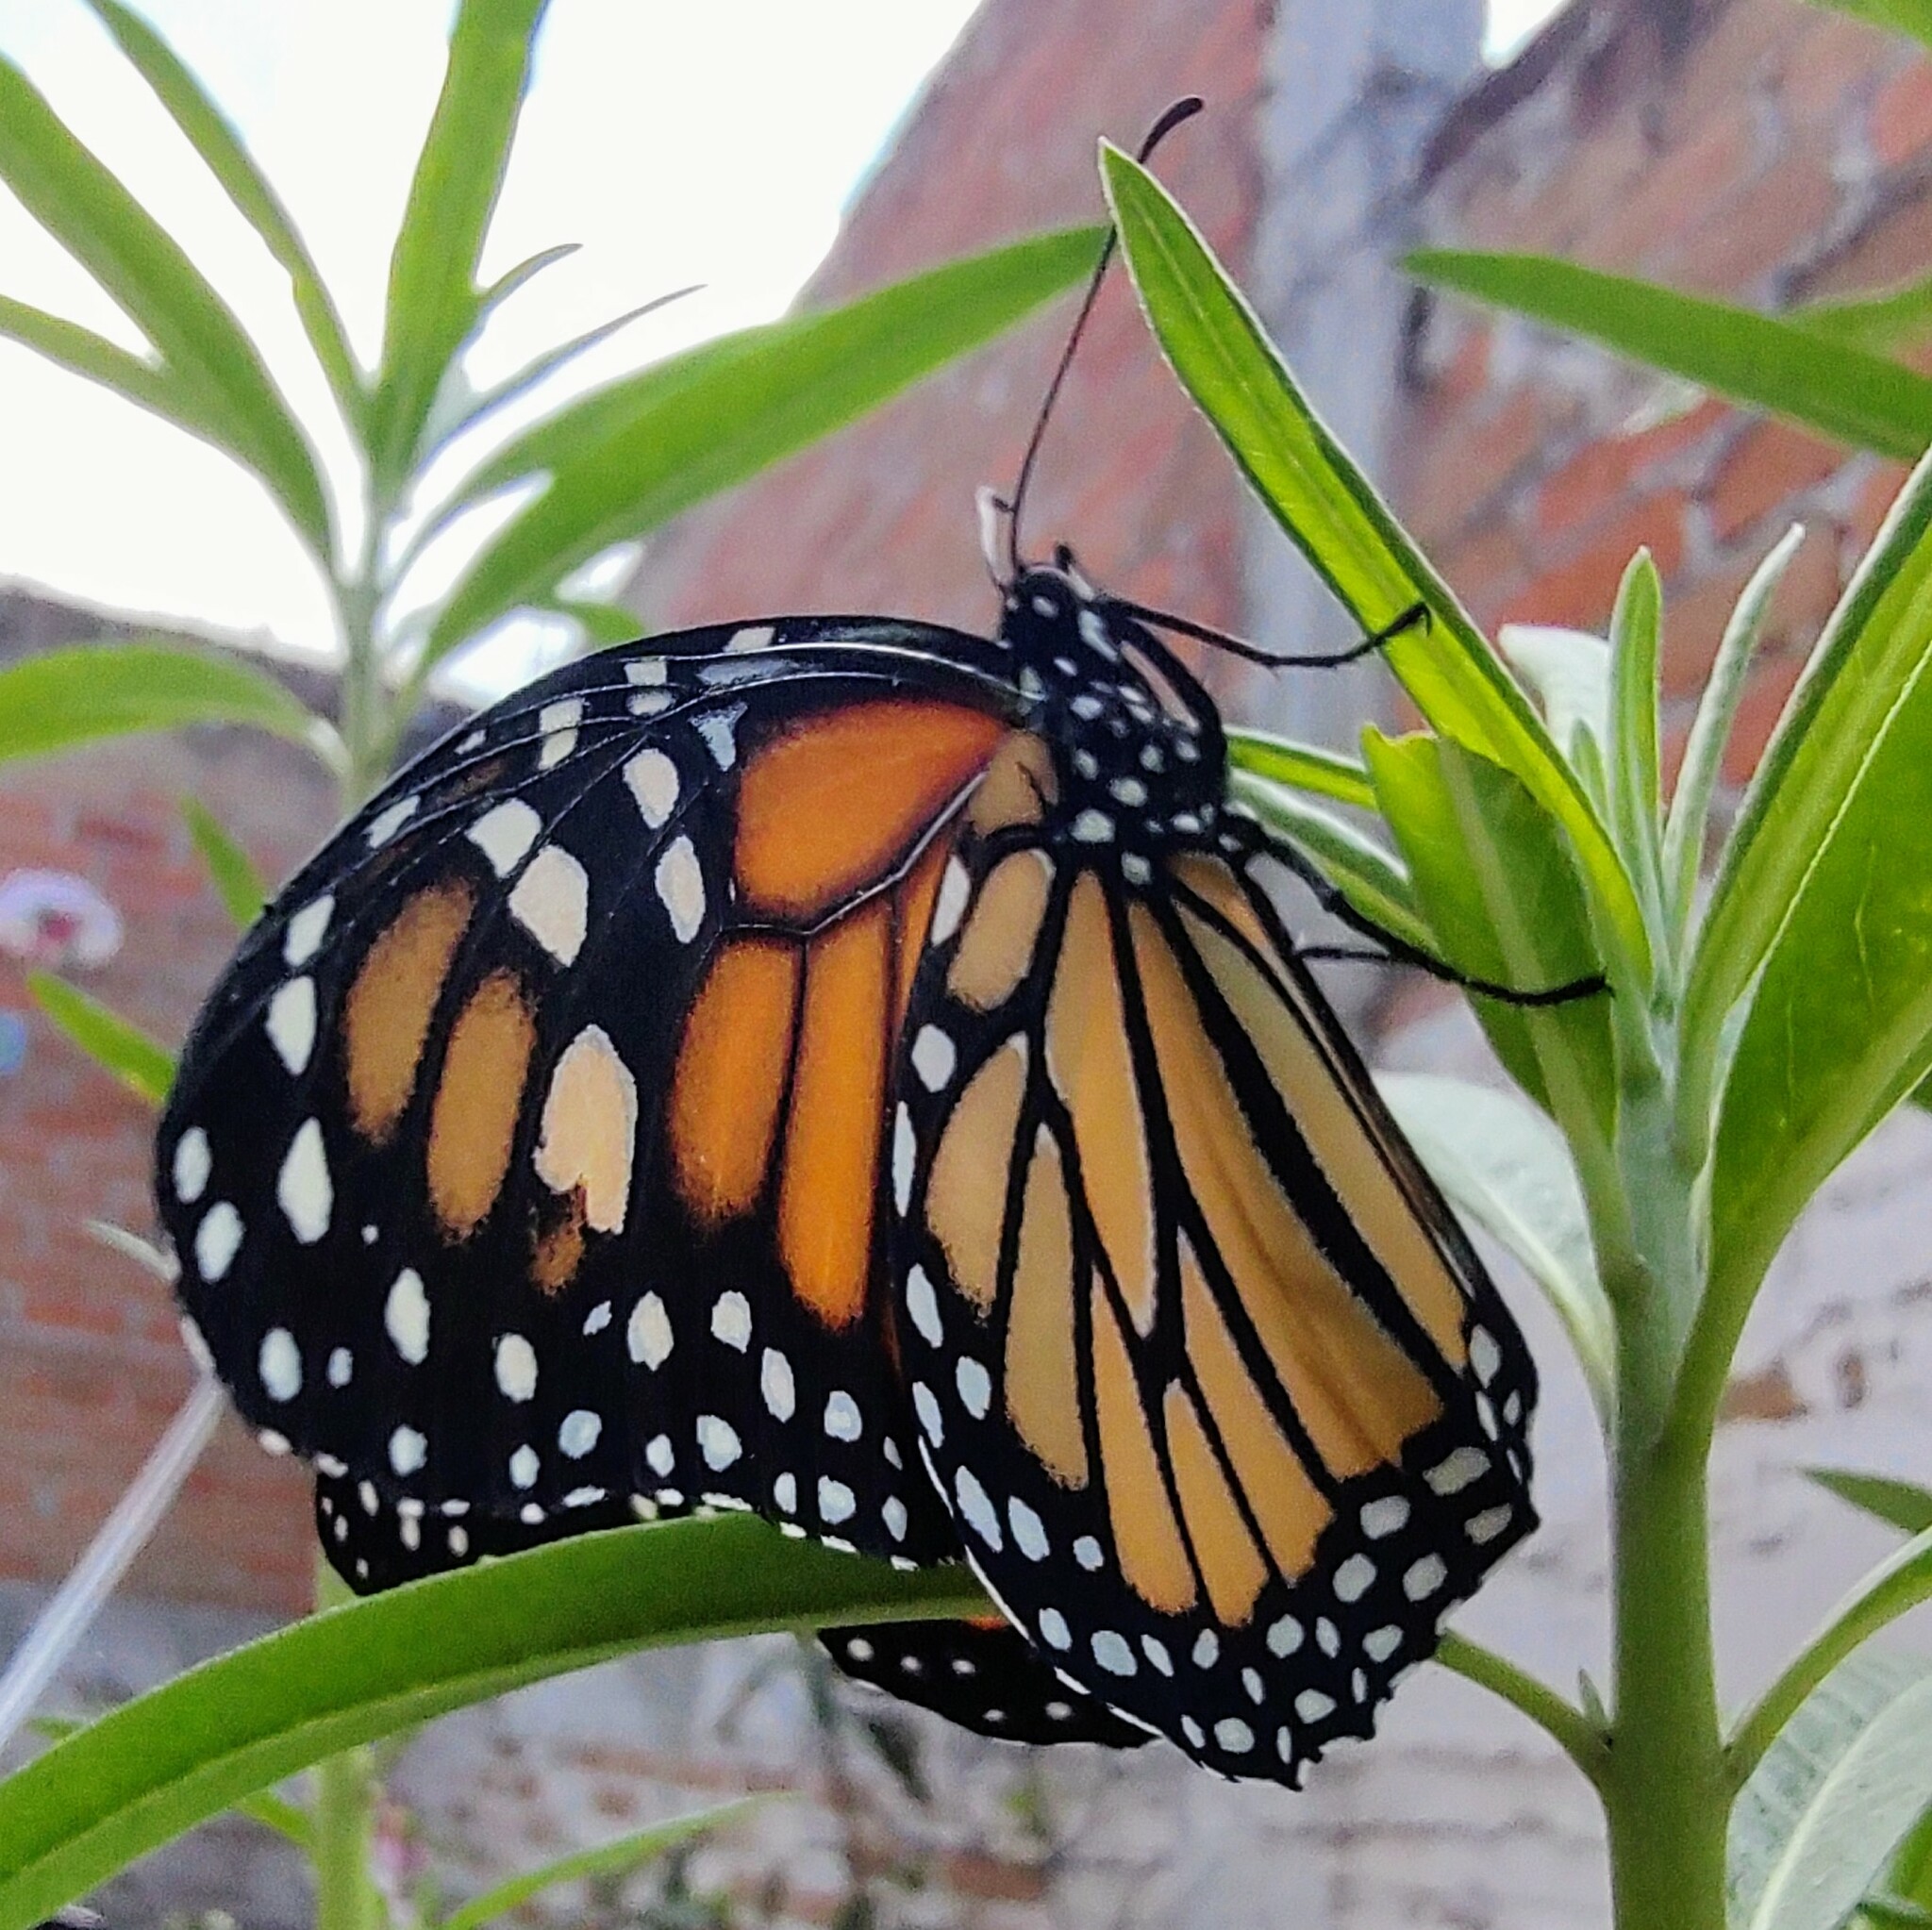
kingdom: Animalia
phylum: Arthropoda
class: Insecta
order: Lepidoptera
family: Nymphalidae
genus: Danaus
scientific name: Danaus plexippus
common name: Monarch
